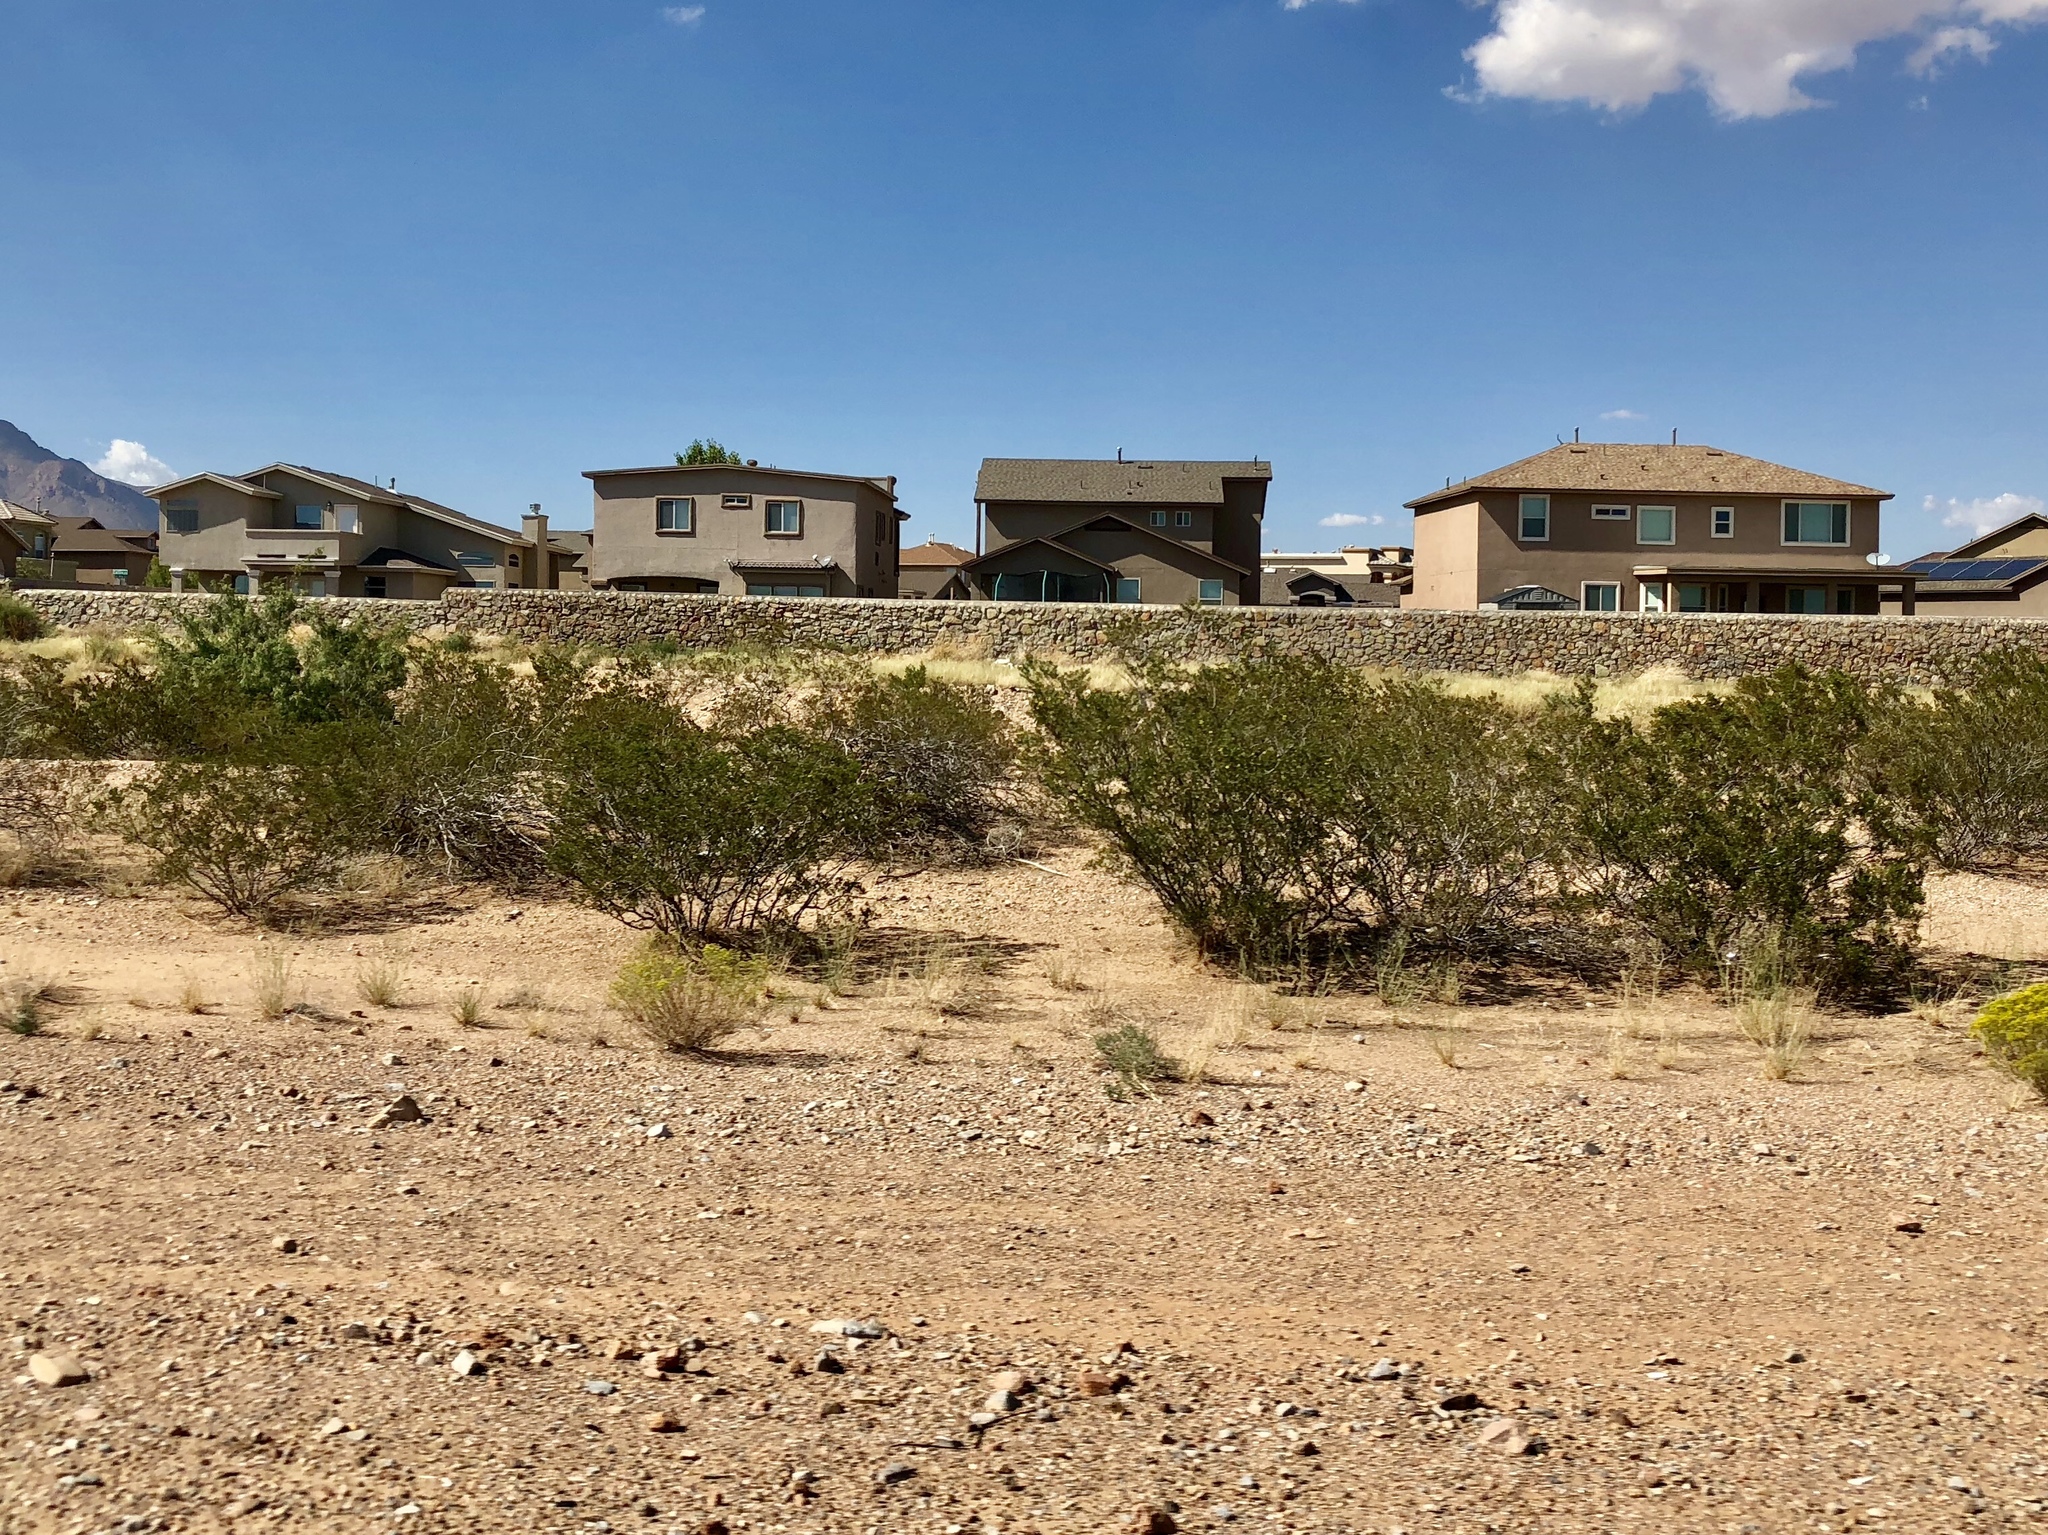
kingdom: Plantae
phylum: Tracheophyta
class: Magnoliopsida
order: Zygophyllales
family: Zygophyllaceae
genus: Larrea
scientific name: Larrea tridentata
